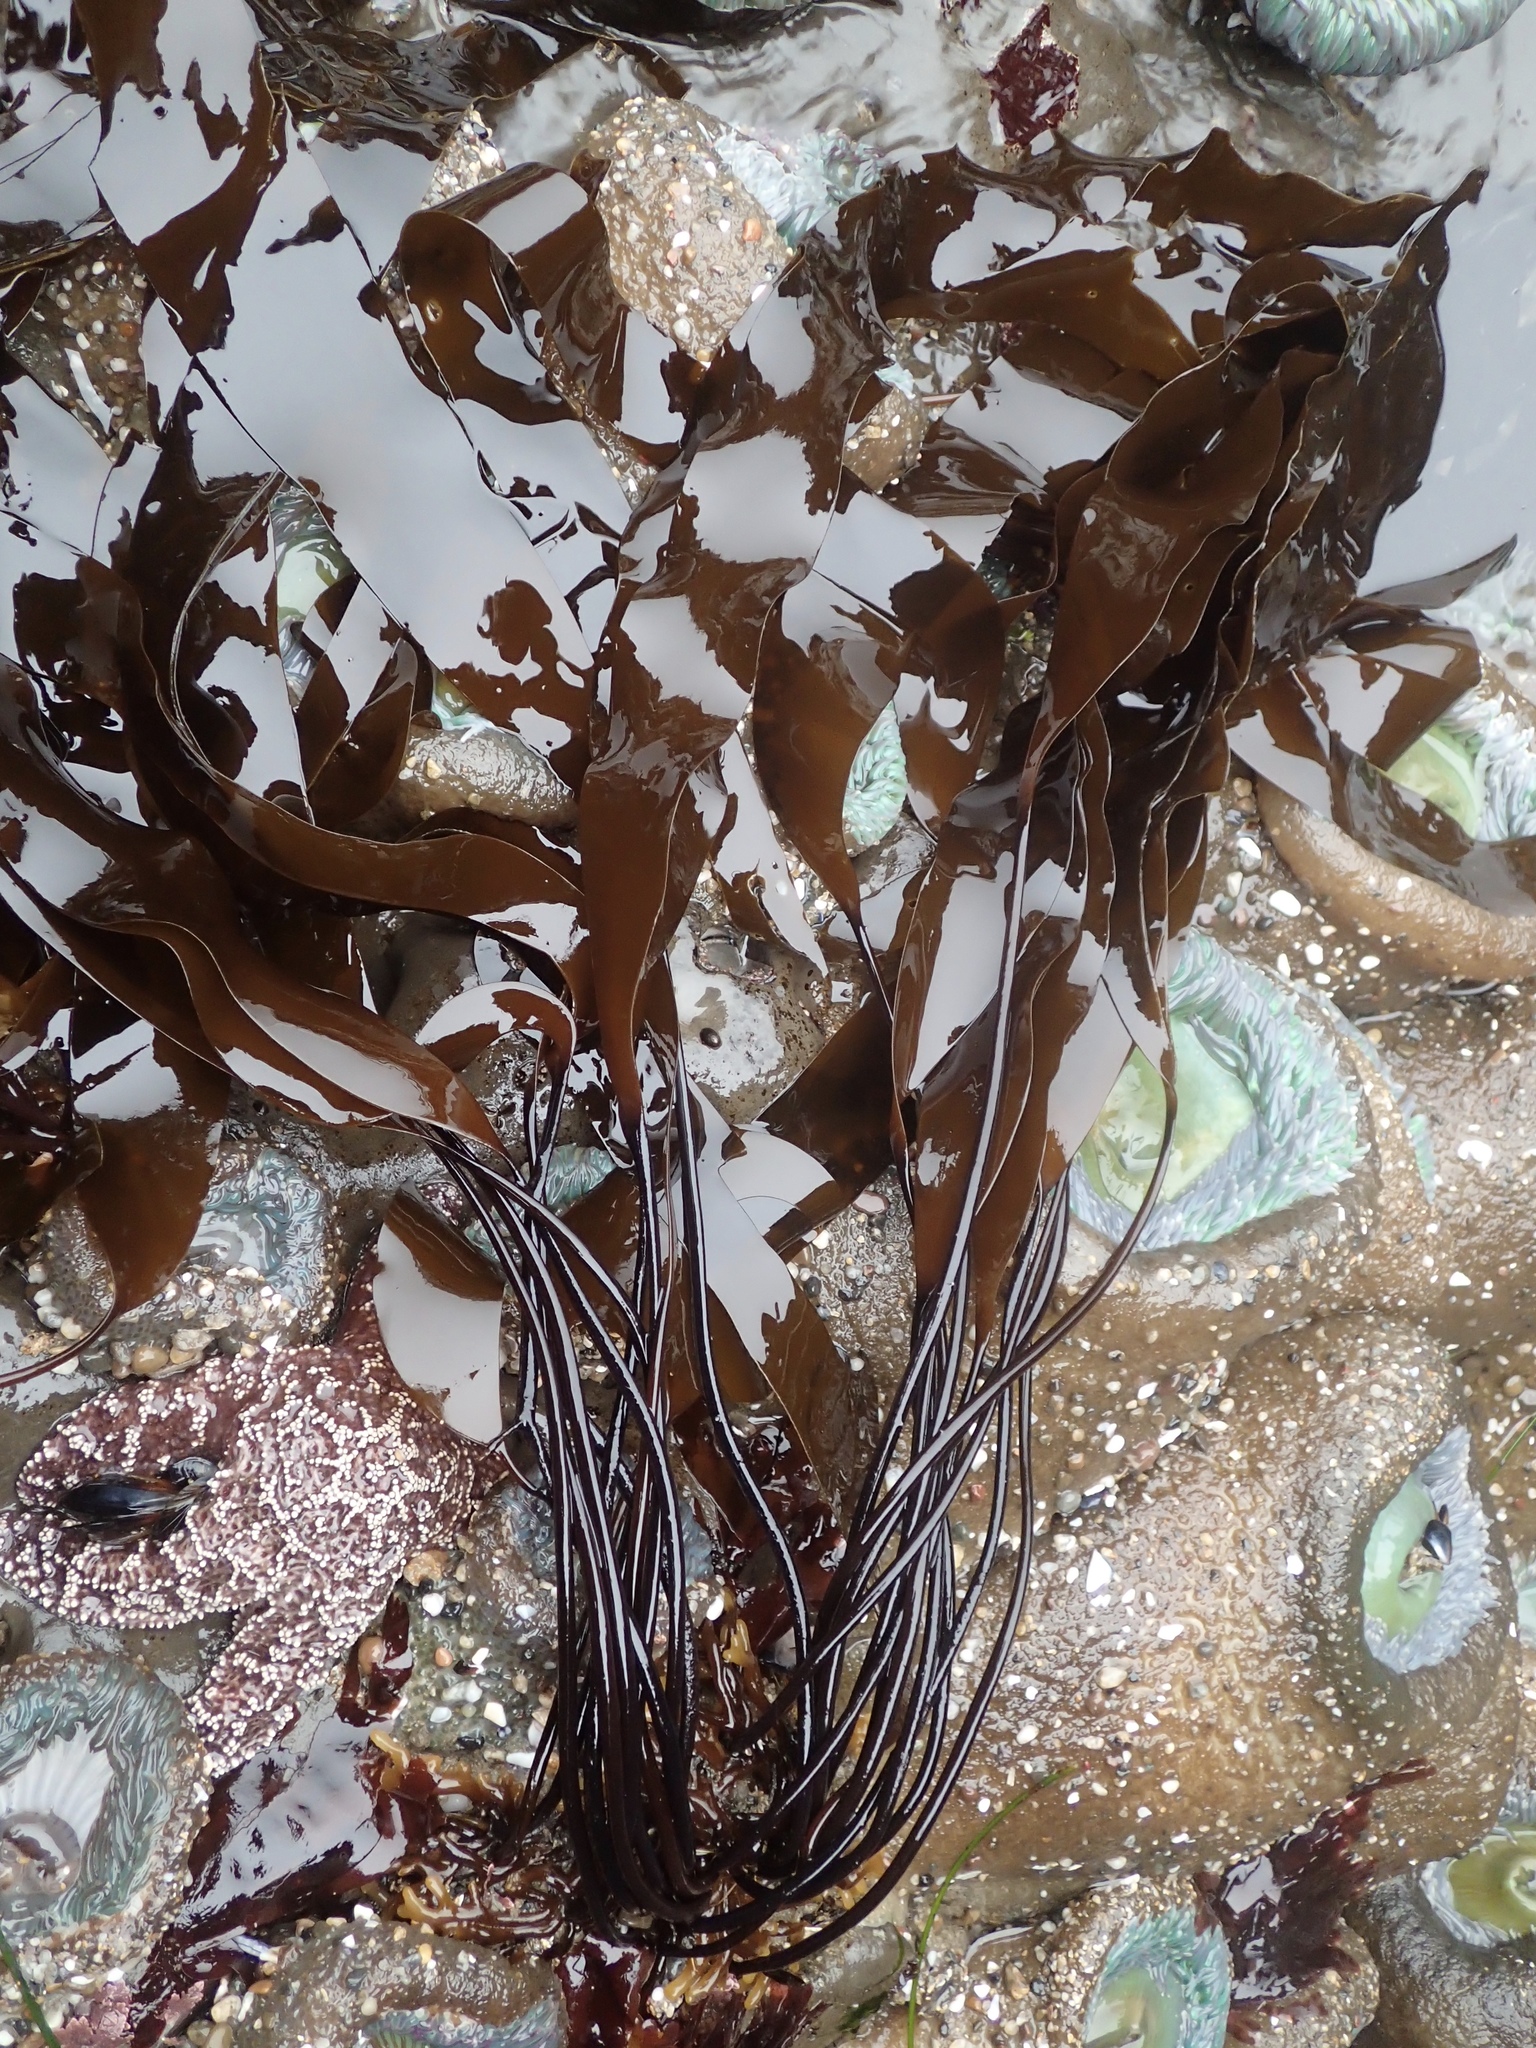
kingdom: Chromista
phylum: Ochrophyta
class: Phaeophyceae
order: Laminariales
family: Laminariaceae
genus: Laminaria
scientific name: Laminaria sinclairii
